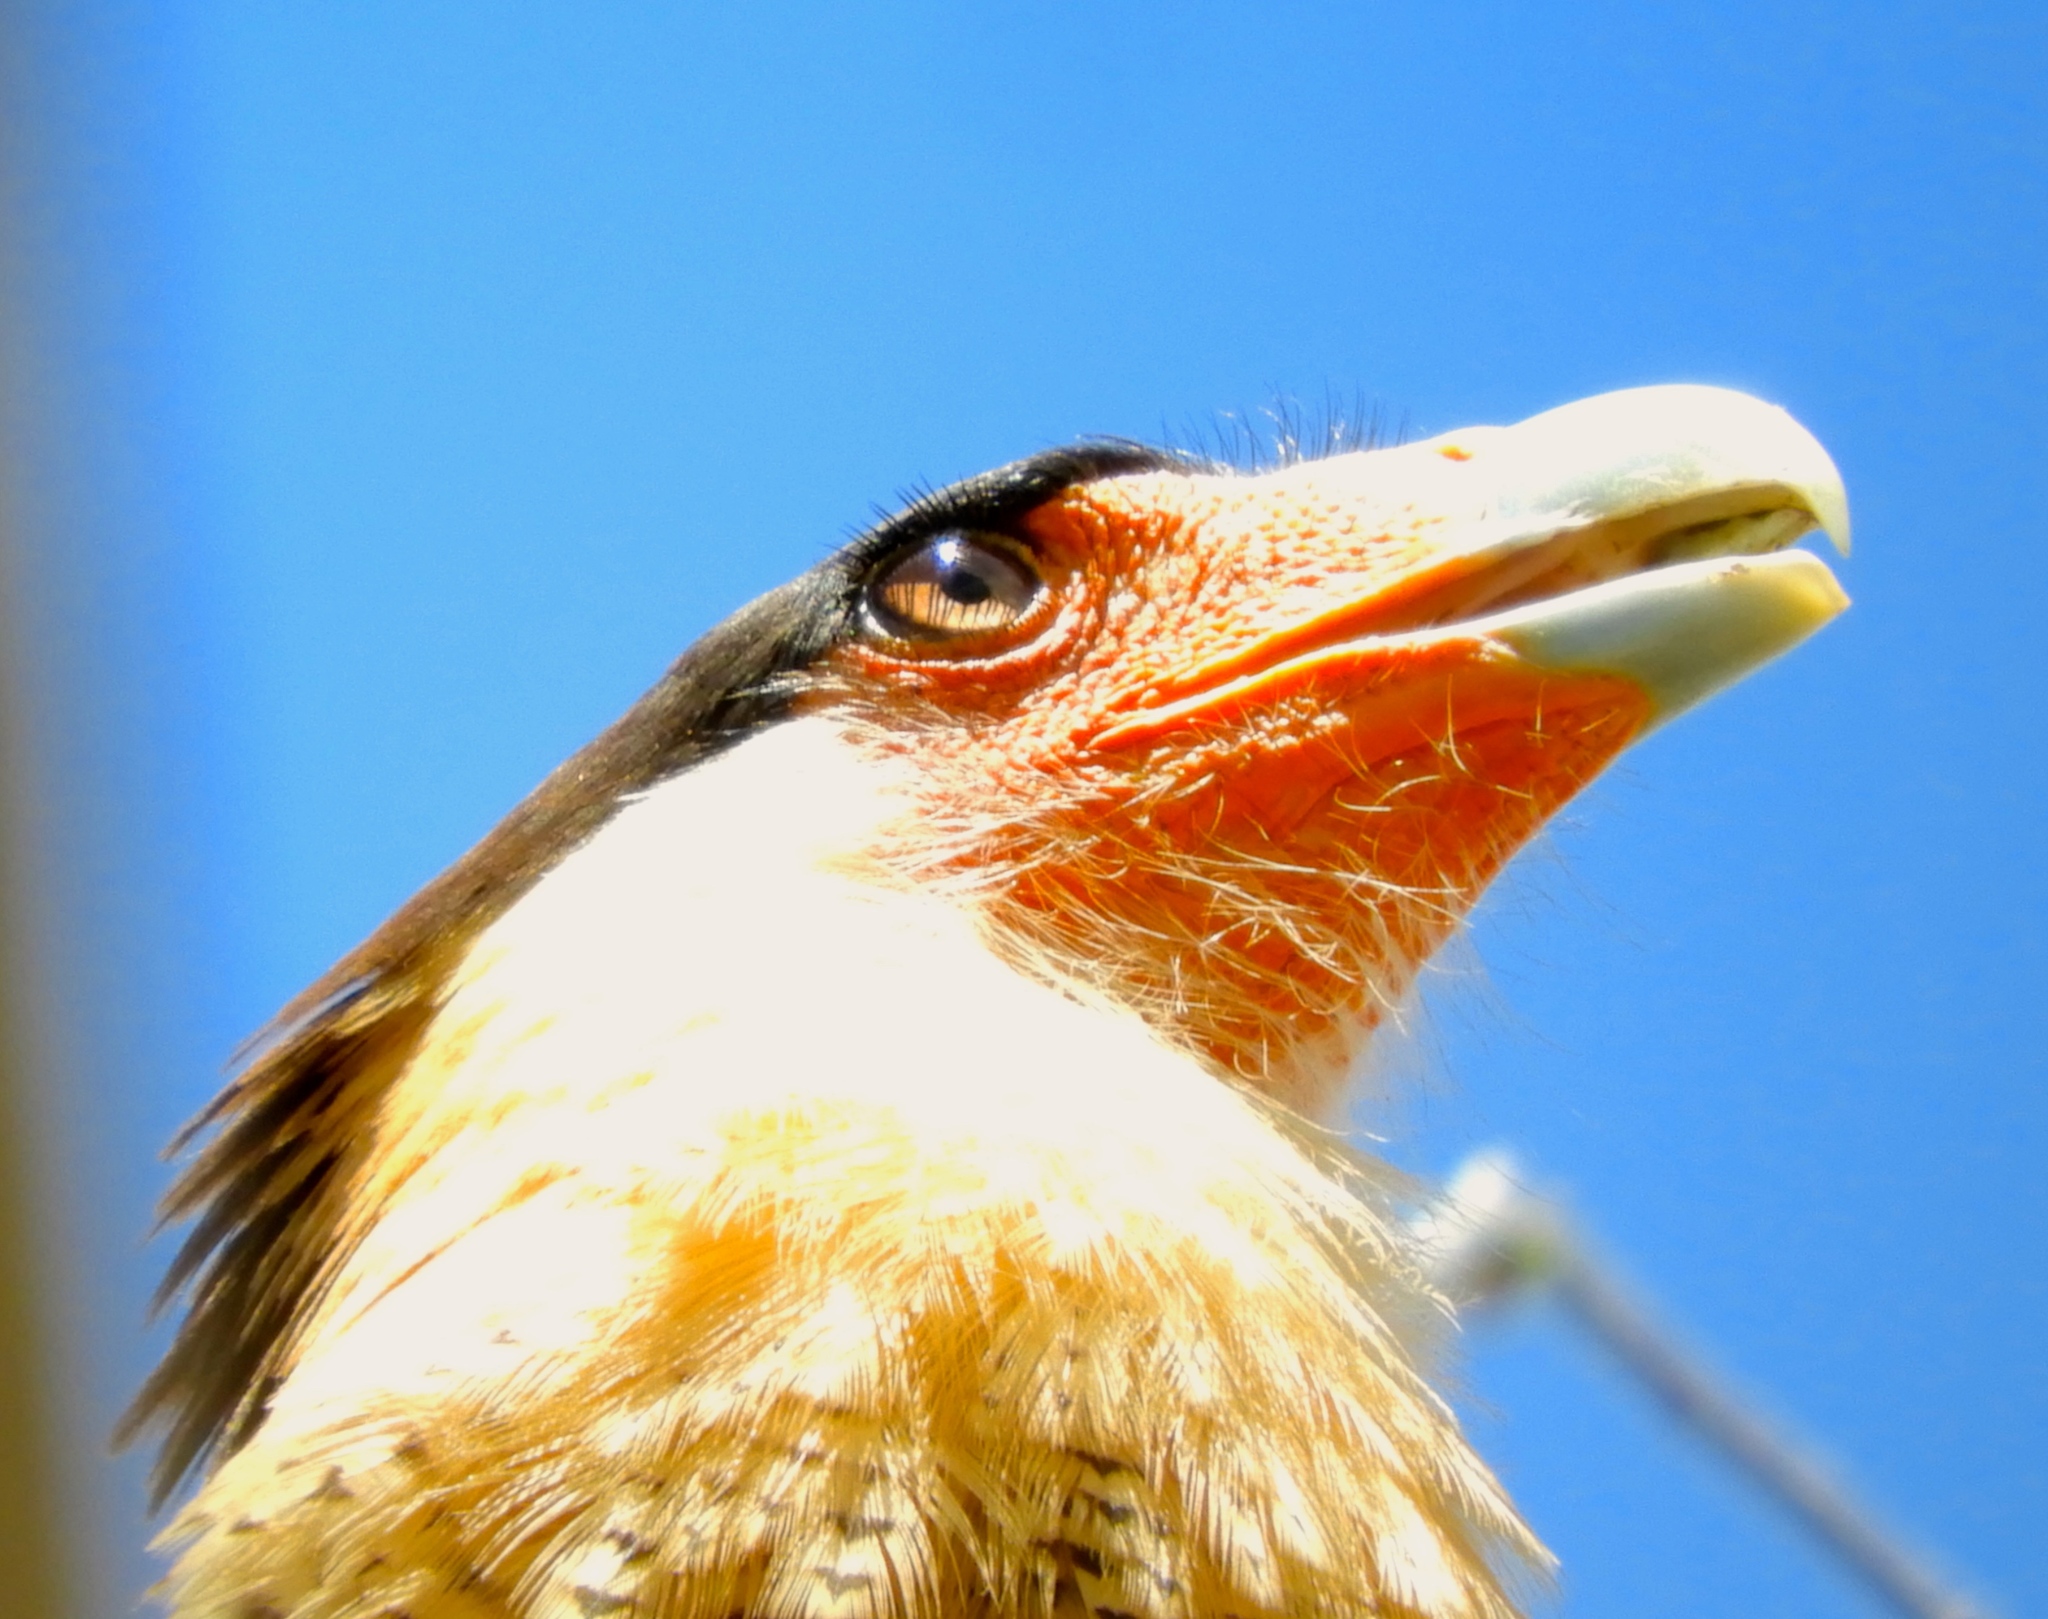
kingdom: Animalia
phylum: Chordata
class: Aves
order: Falconiformes
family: Falconidae
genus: Caracara
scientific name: Caracara plancus
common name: Southern caracara
